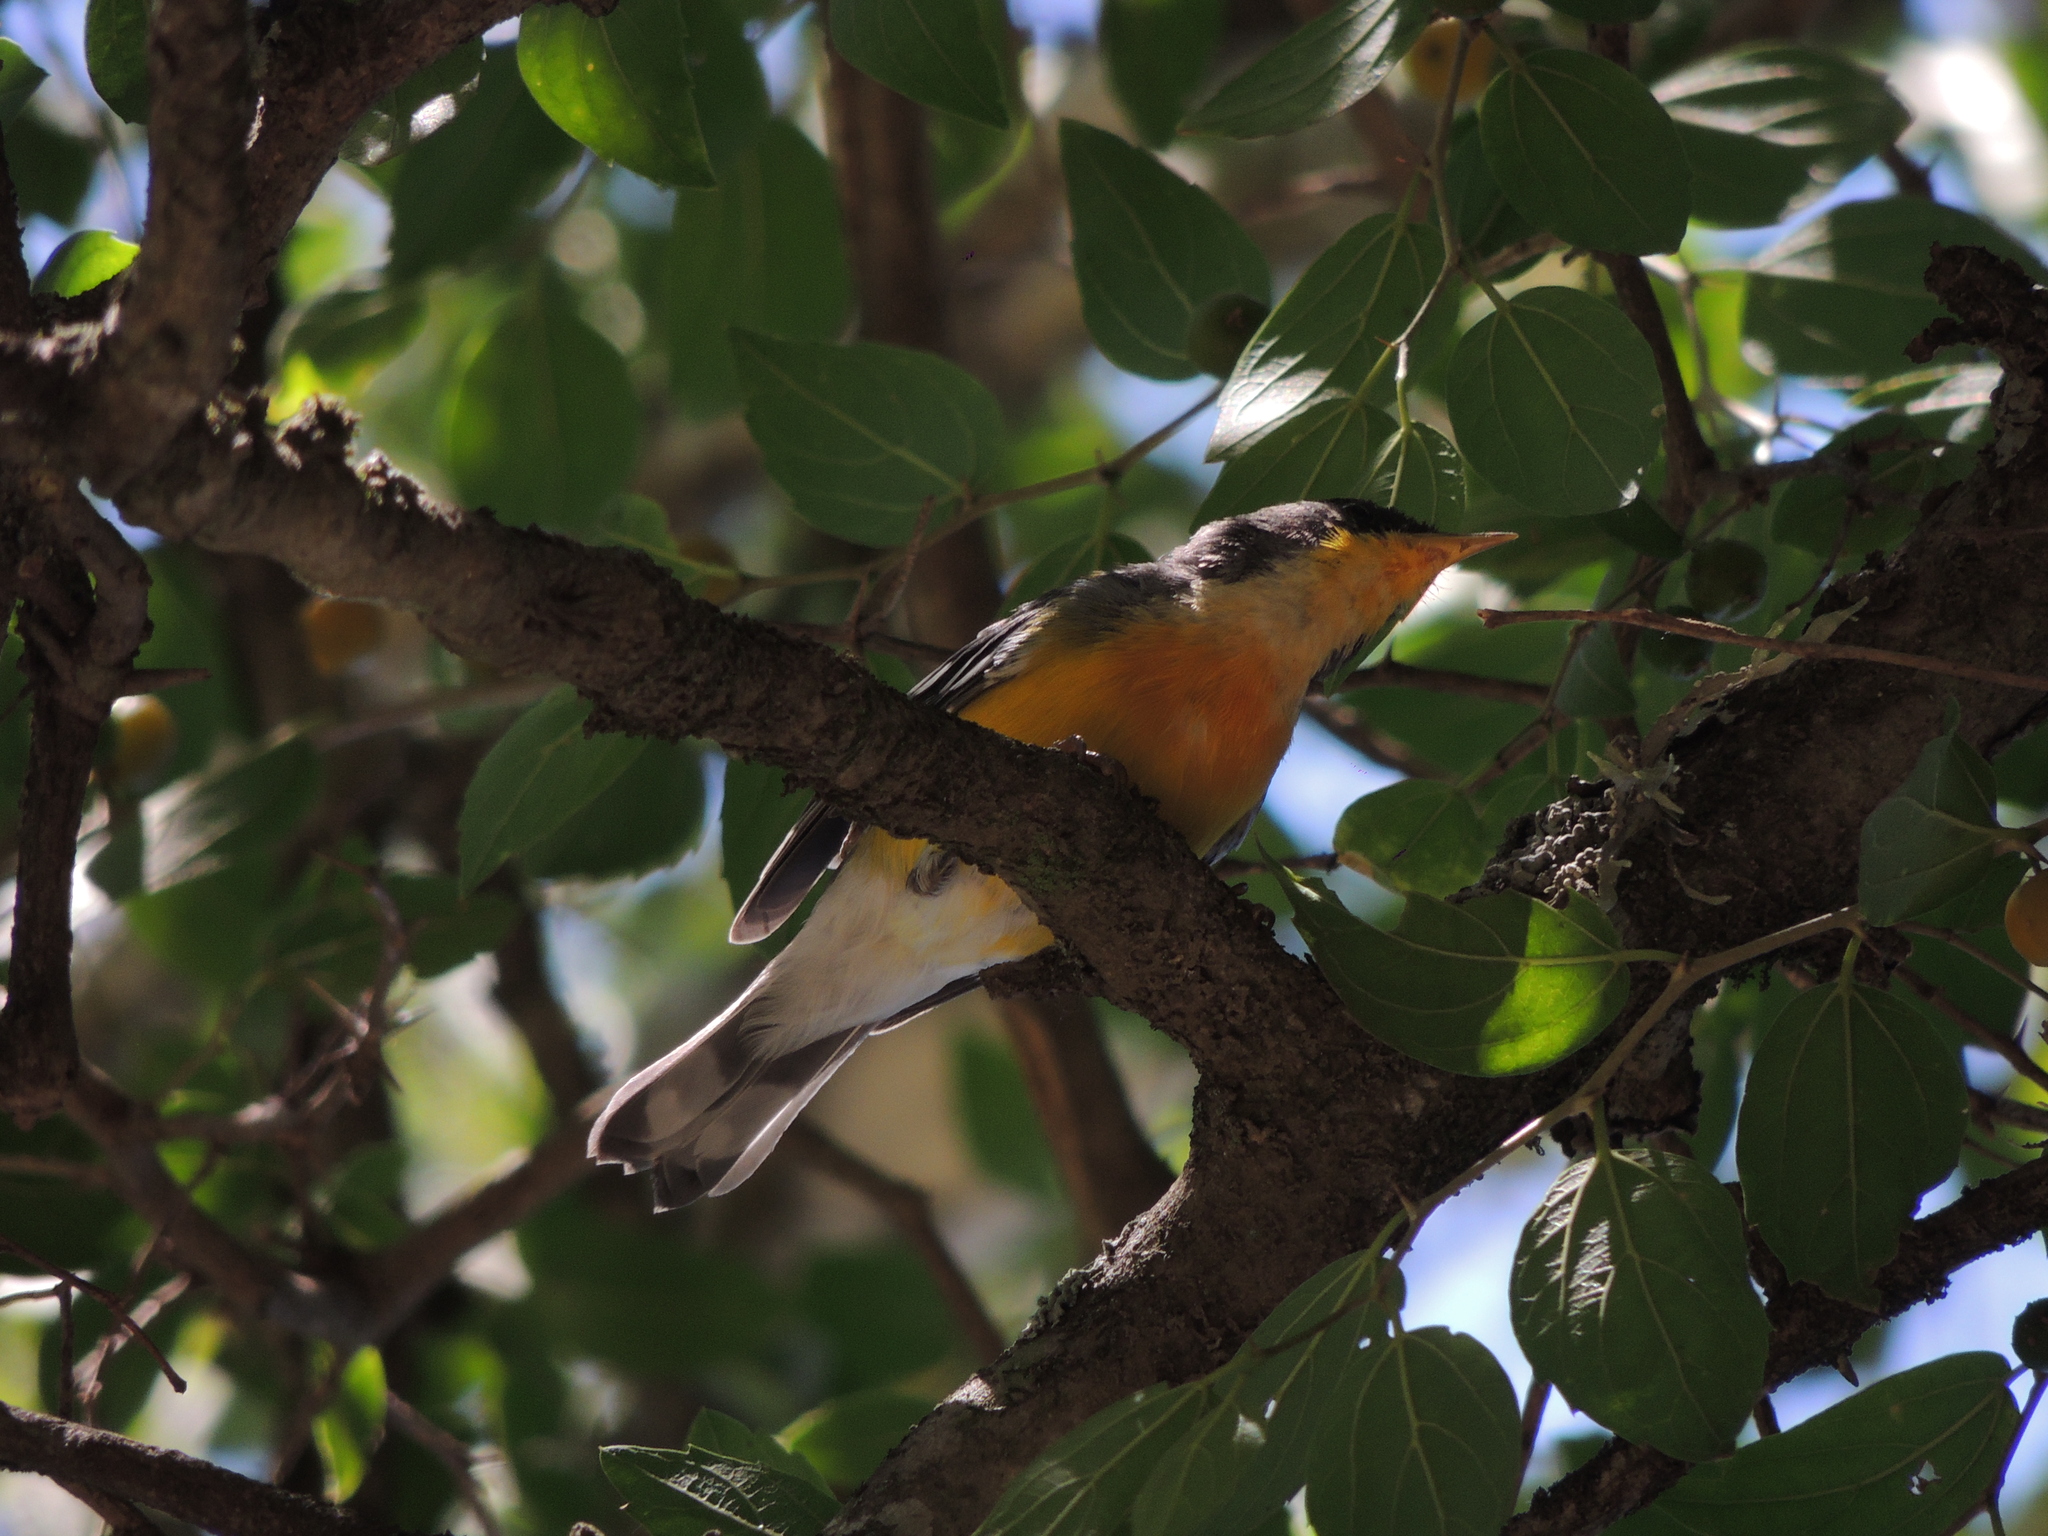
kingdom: Animalia
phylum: Chordata
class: Aves
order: Passeriformes
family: Parulidae
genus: Setophaga
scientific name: Setophaga pitiayumi
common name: Tropical parula
